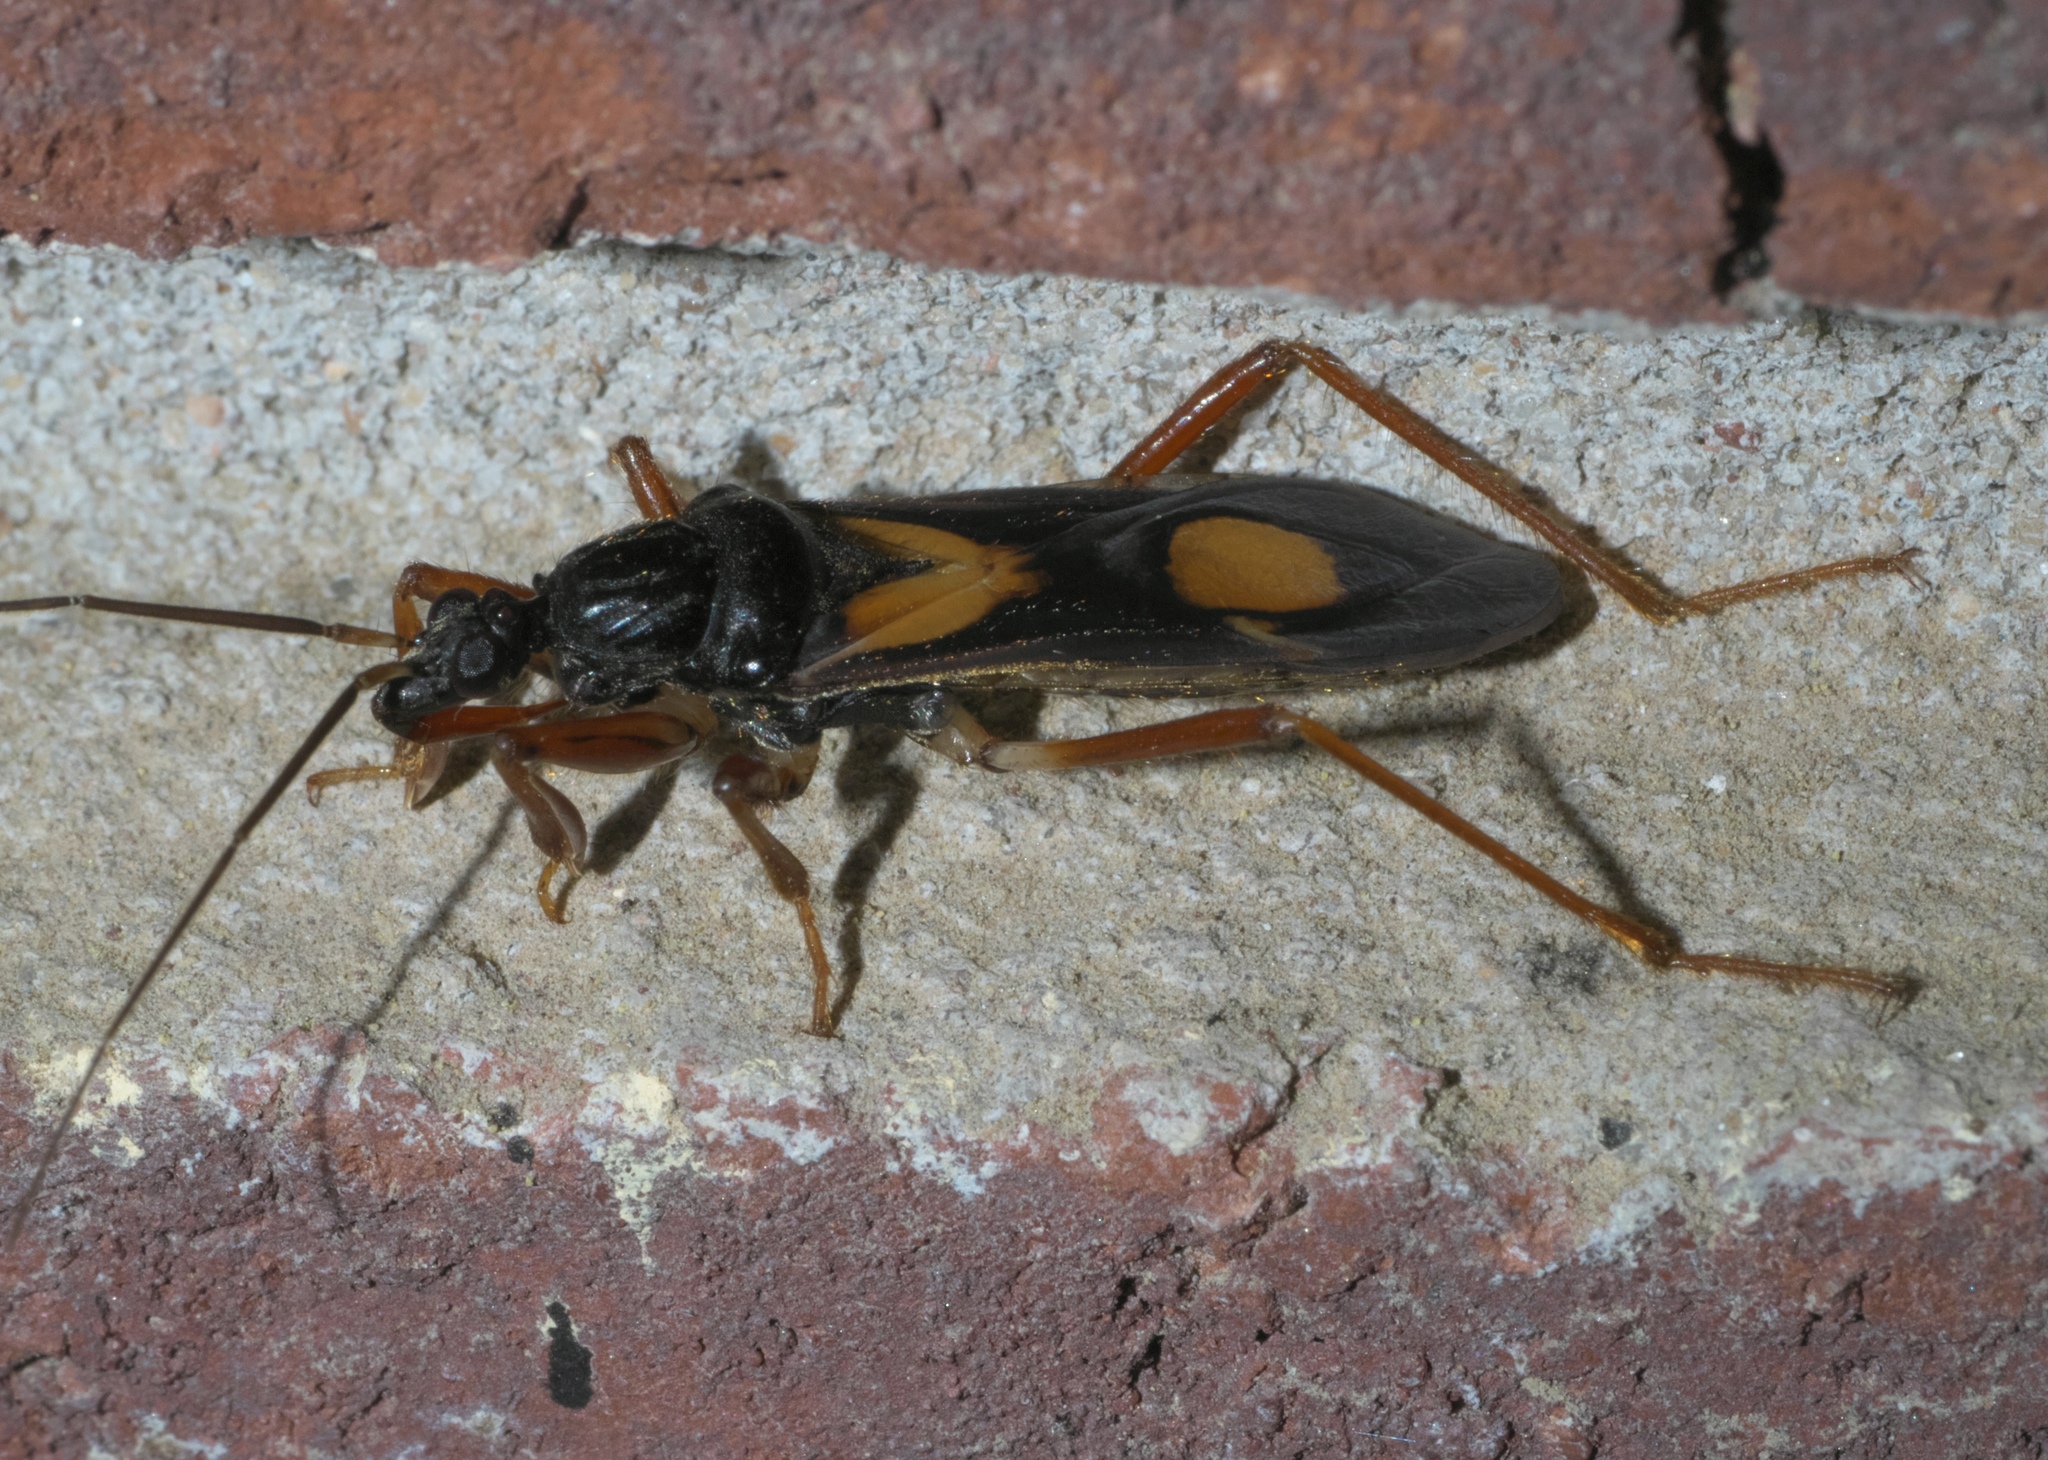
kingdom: Animalia
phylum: Arthropoda
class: Insecta
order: Hemiptera
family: Reduviidae
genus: Rasahus
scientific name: Rasahus hamatus
